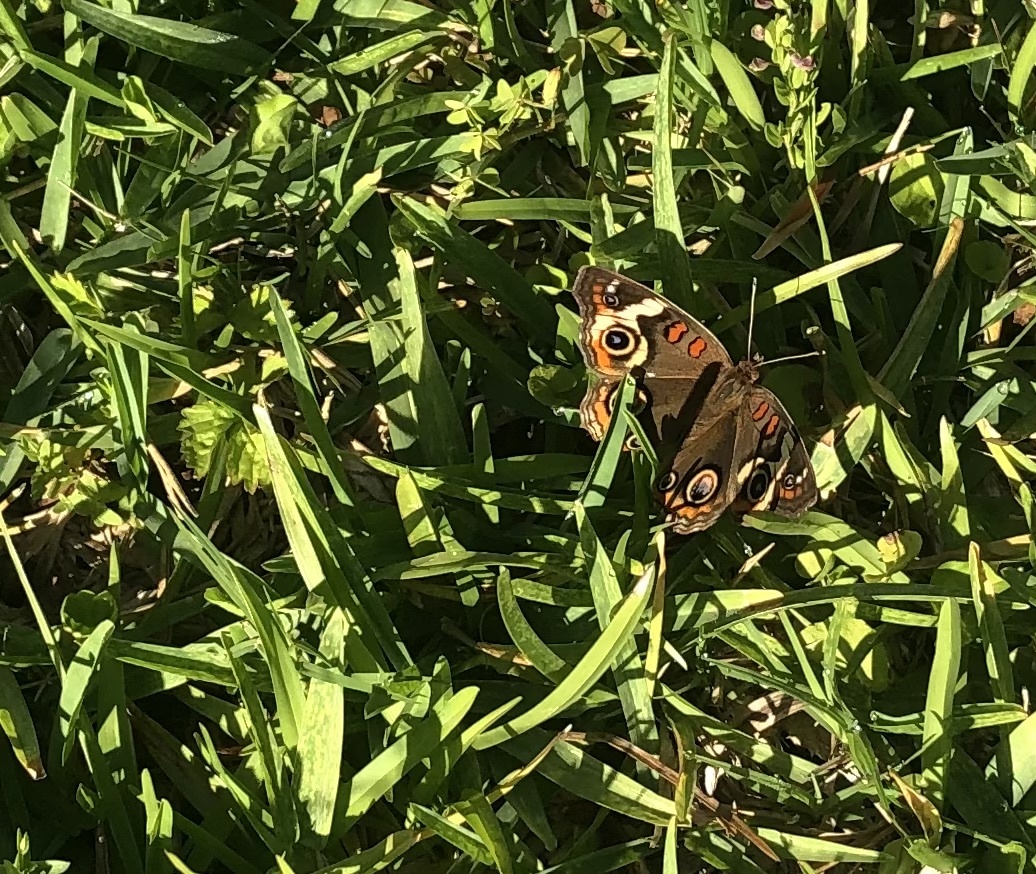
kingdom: Animalia
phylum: Arthropoda
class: Insecta
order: Lepidoptera
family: Nymphalidae
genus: Junonia
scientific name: Junonia coenia
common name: Common buckeye
